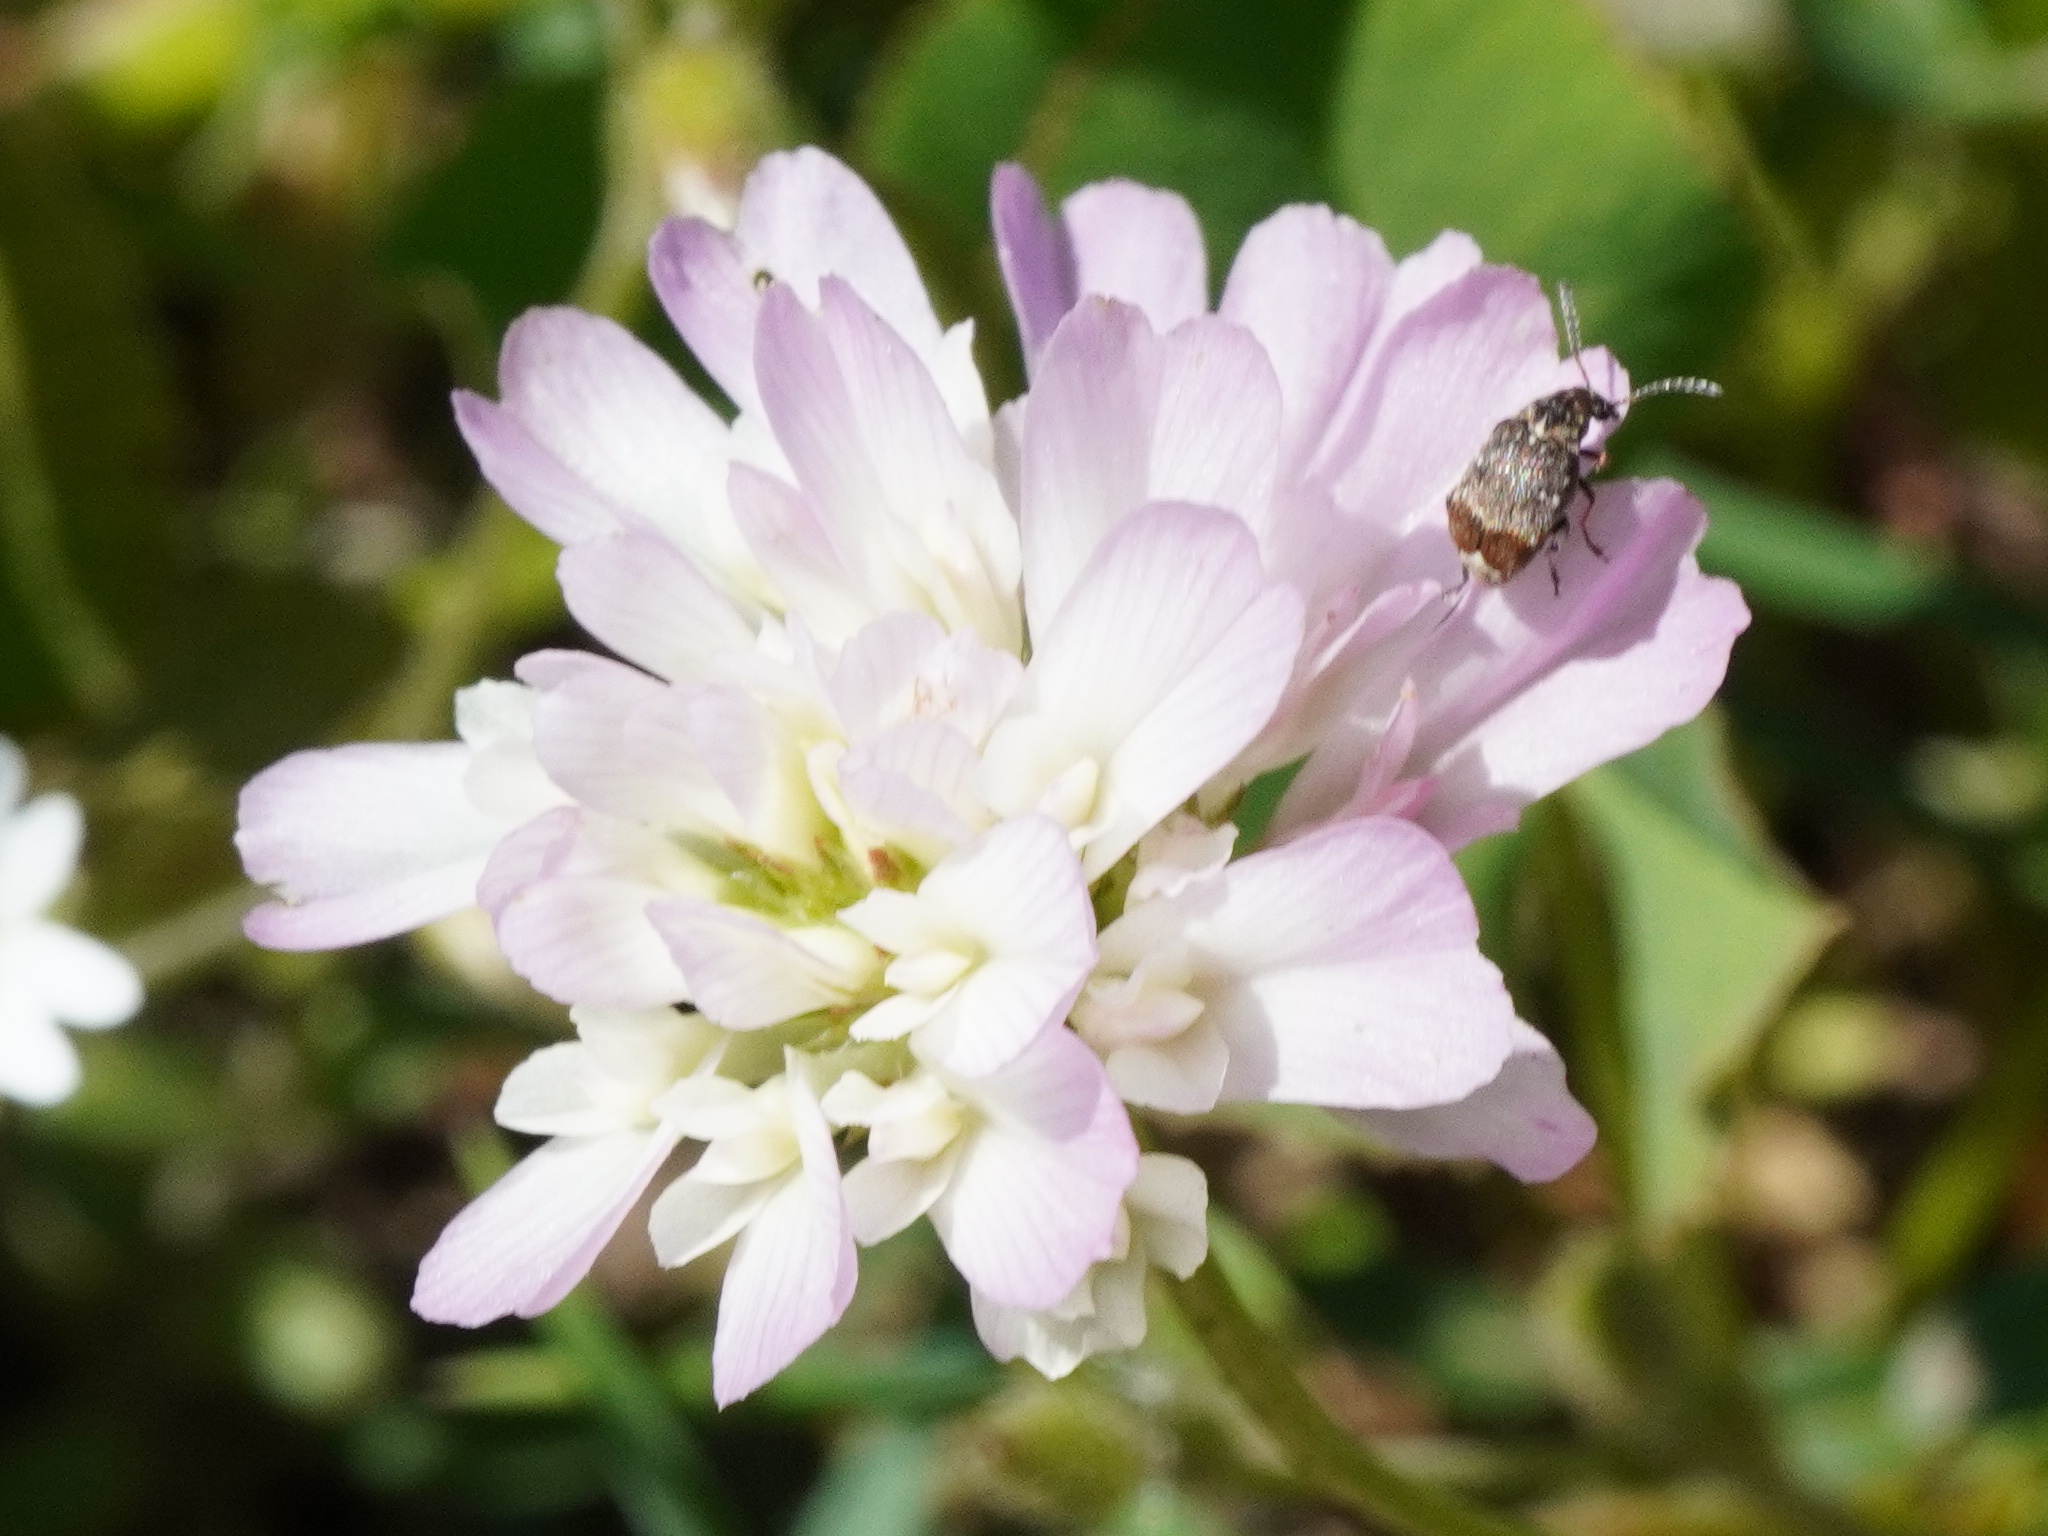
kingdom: Plantae
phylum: Tracheophyta
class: Magnoliopsida
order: Fabales
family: Fabaceae
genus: Trifolium
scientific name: Trifolium resupinatum
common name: Reversed clover
